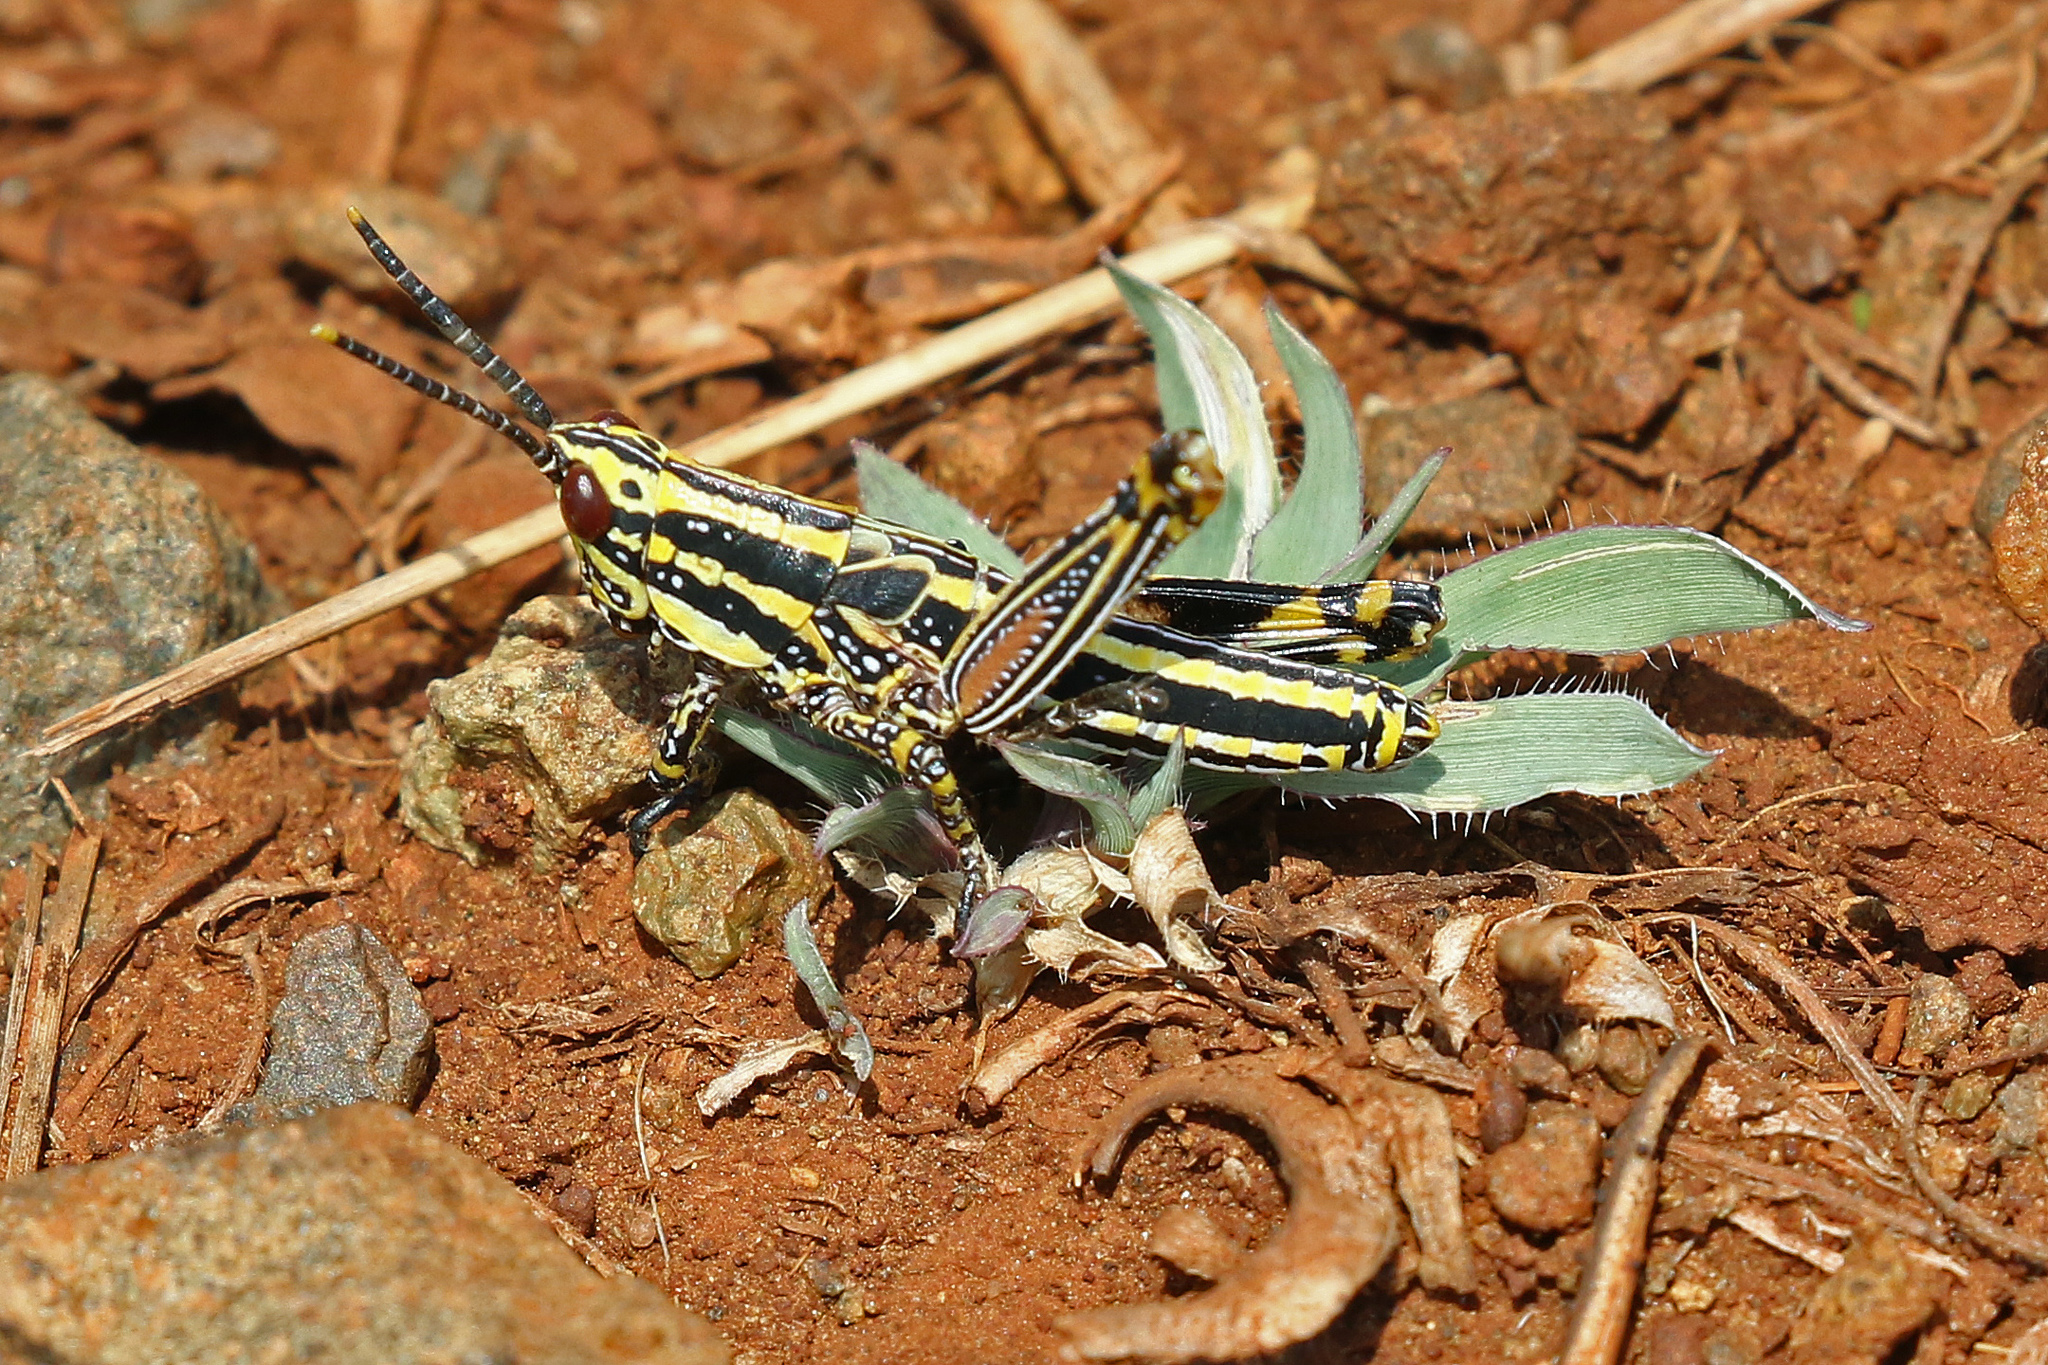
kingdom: Animalia
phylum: Arthropoda
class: Insecta
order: Orthoptera
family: Pyrgomorphidae
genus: Zonocerus
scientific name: Zonocerus elegans
